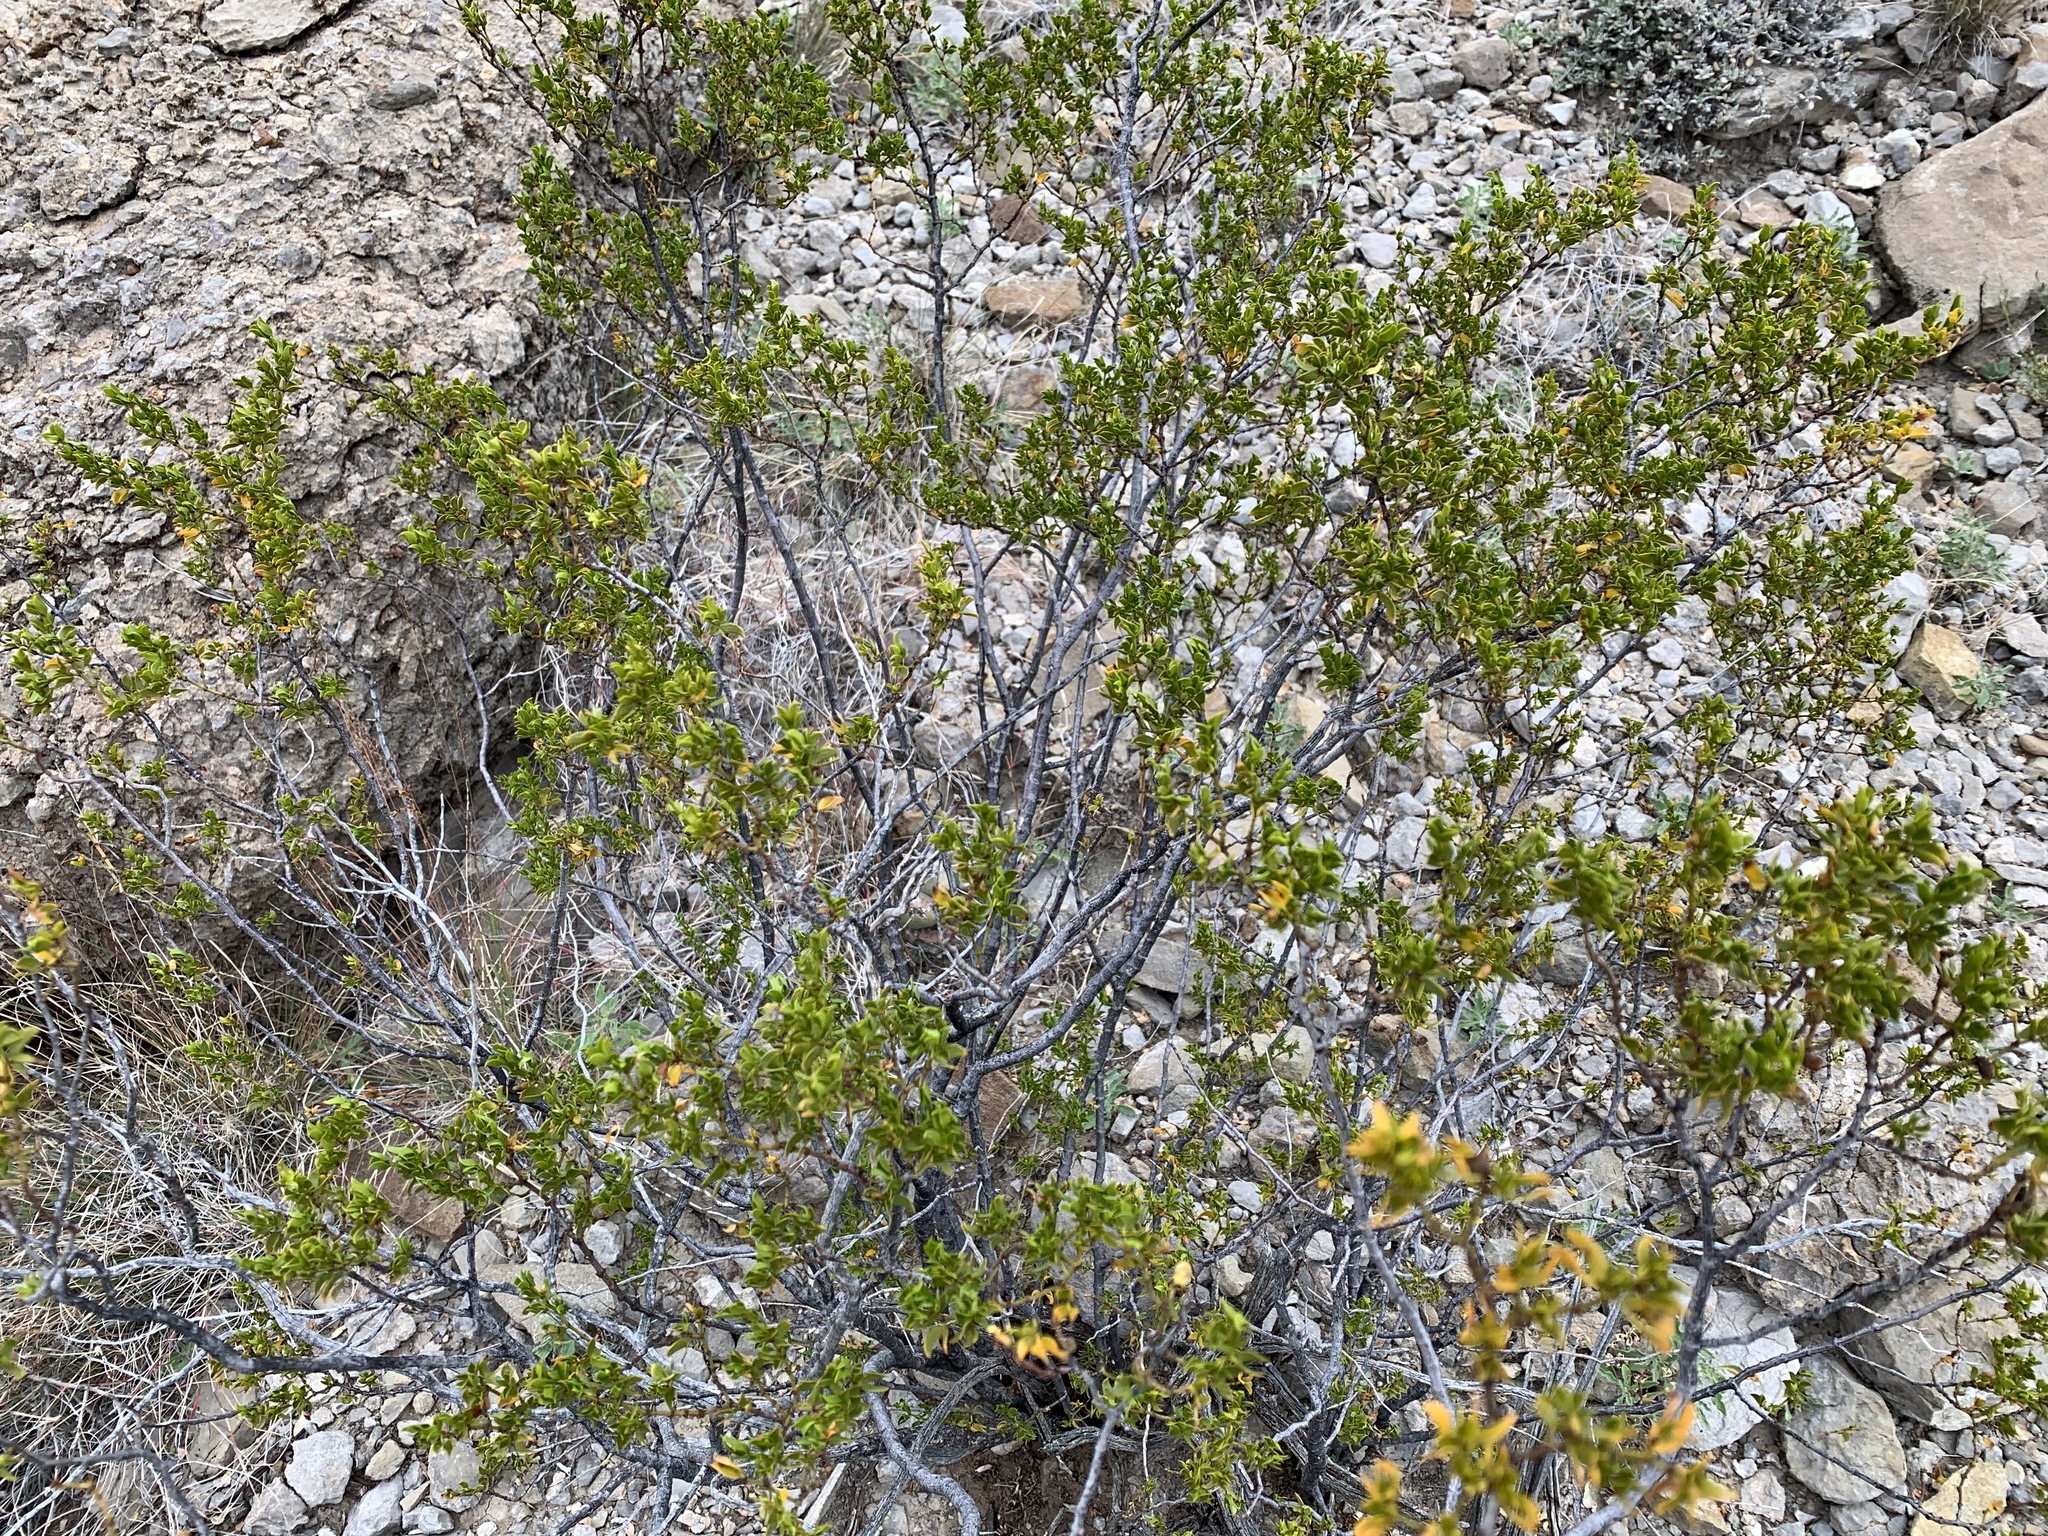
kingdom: Plantae
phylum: Tracheophyta
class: Magnoliopsida
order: Zygophyllales
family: Zygophyllaceae
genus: Larrea
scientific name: Larrea tridentata
